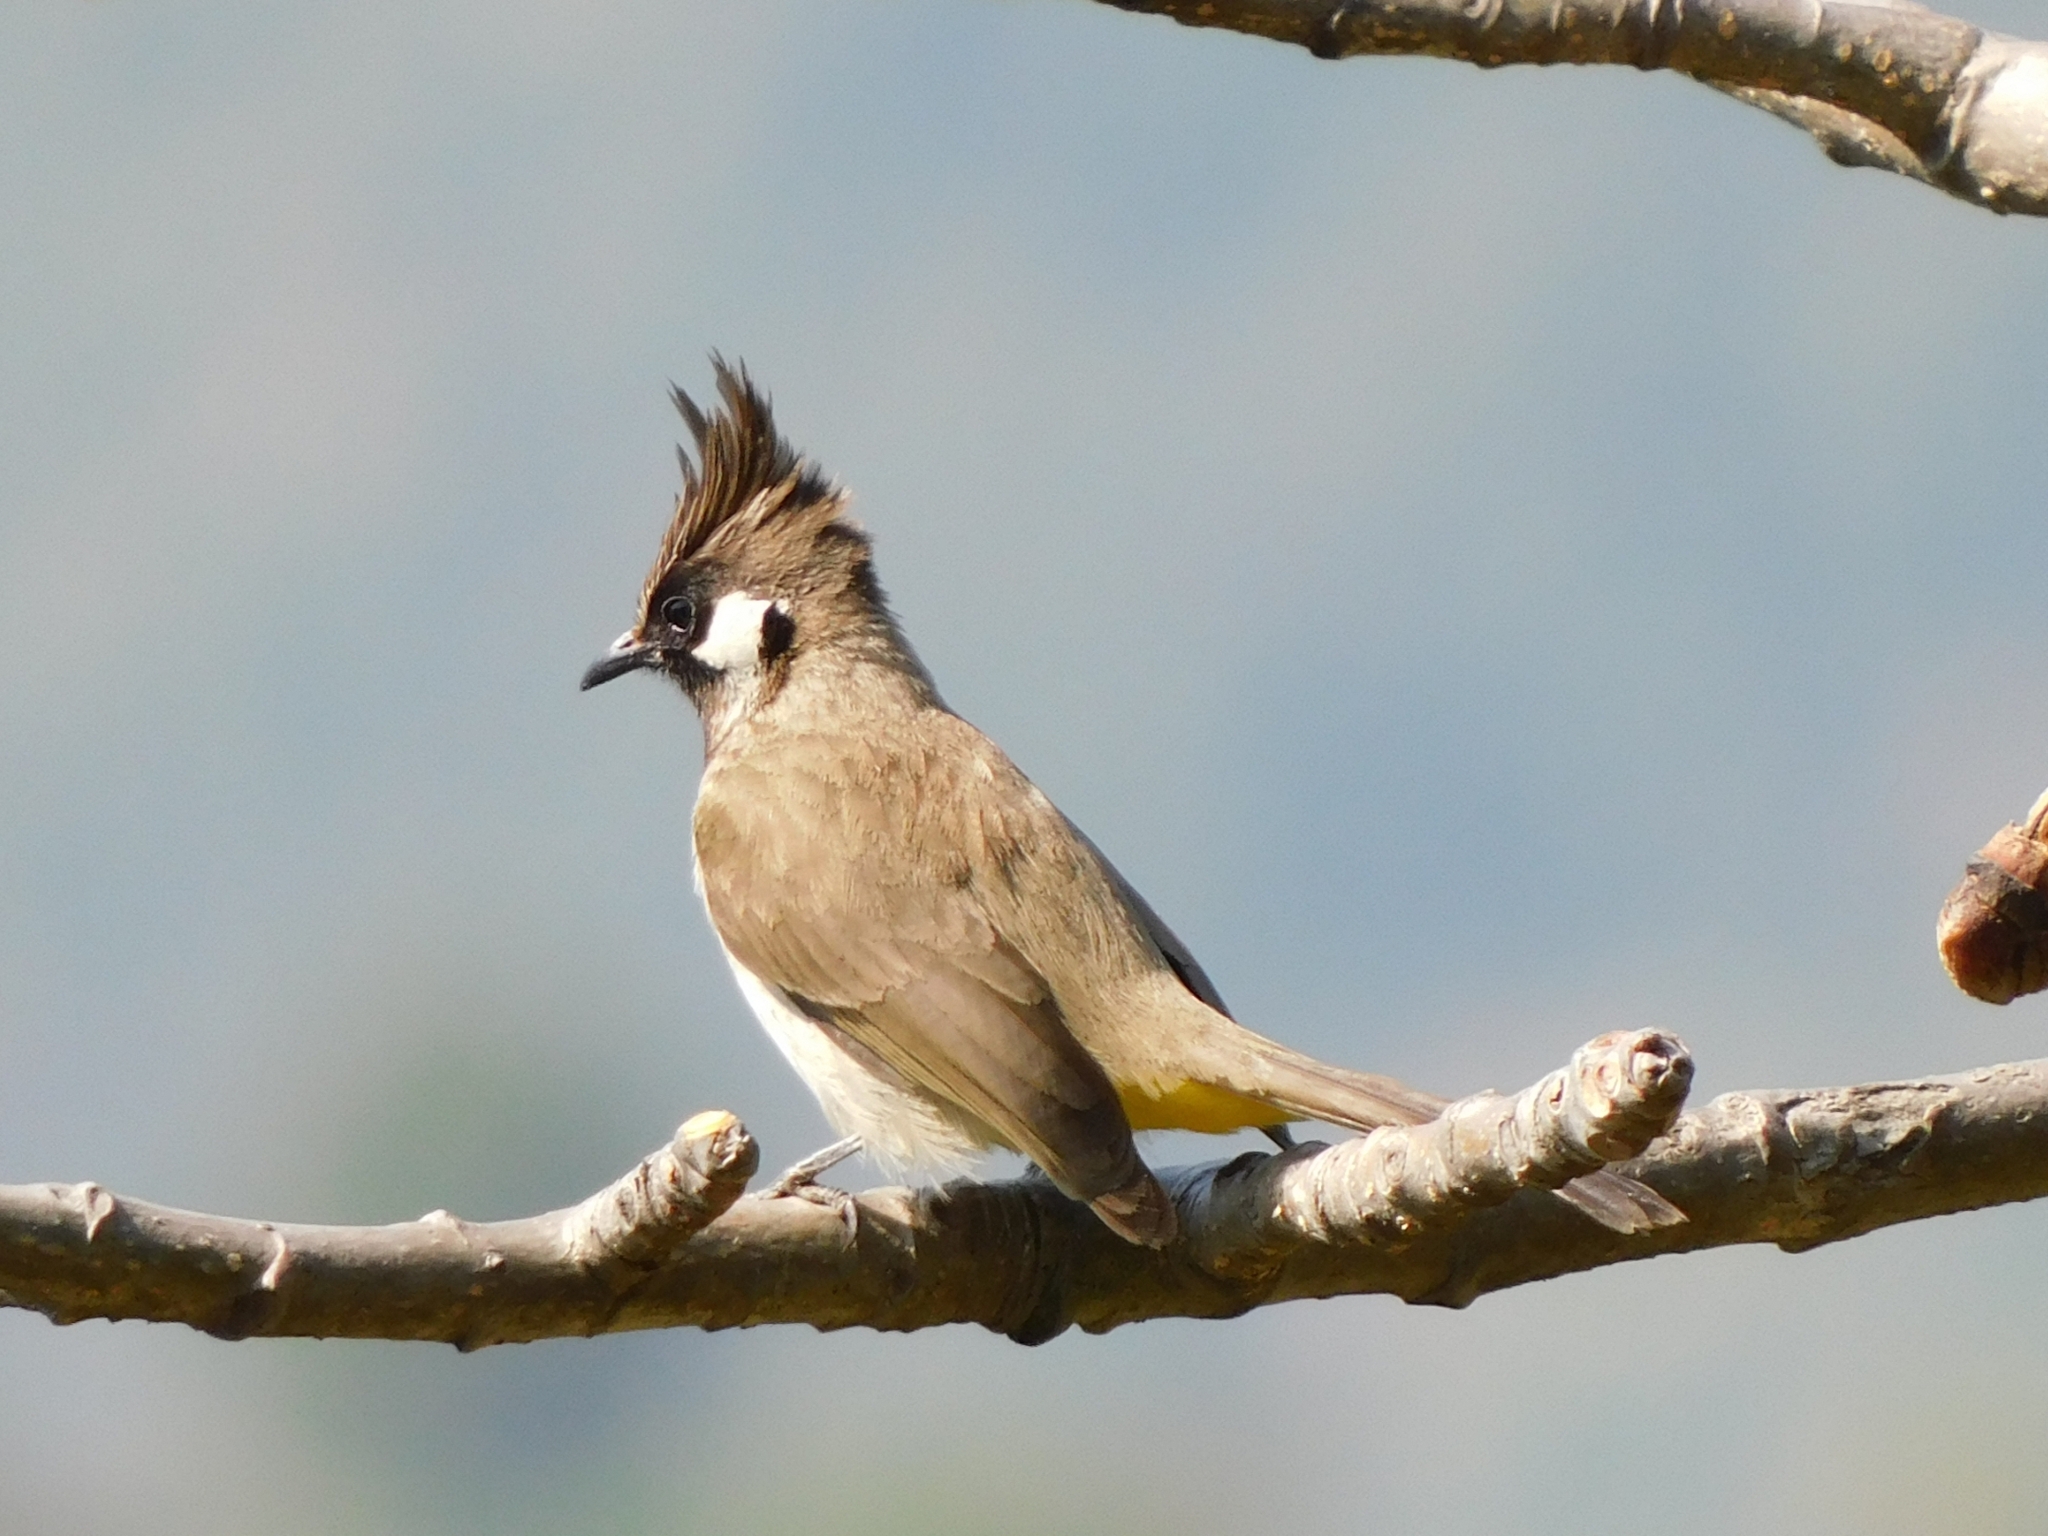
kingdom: Animalia
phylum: Chordata
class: Aves
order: Passeriformes
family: Pycnonotidae
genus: Pycnonotus
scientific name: Pycnonotus leucogenys
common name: Himalayan bulbul
